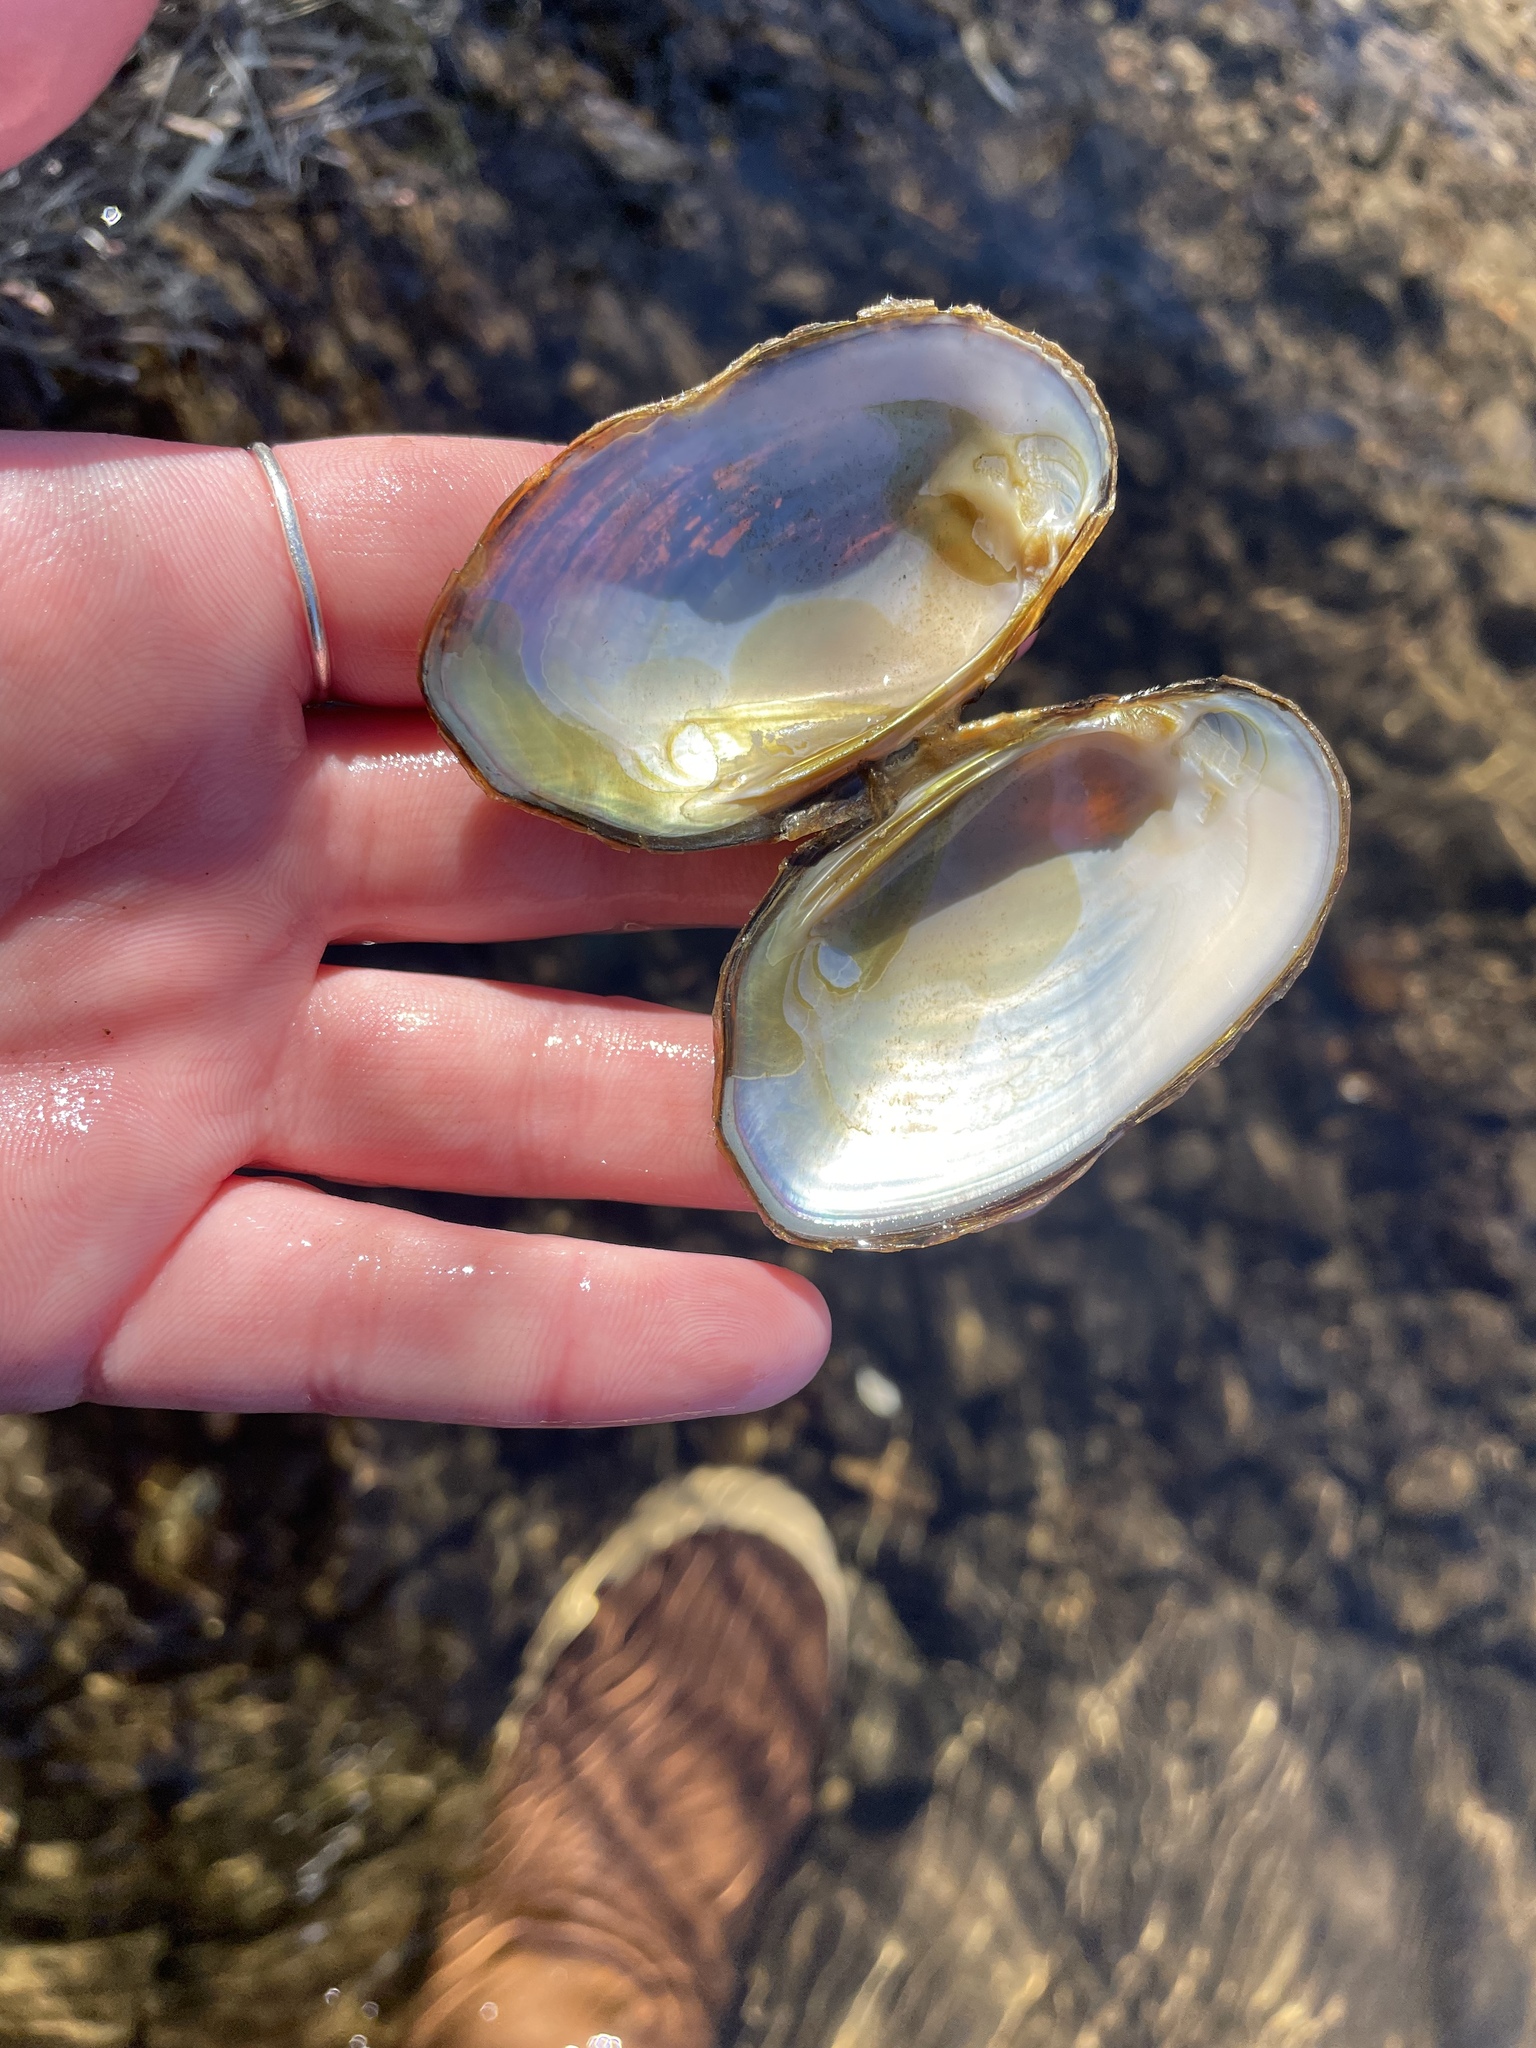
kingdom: Animalia
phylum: Mollusca
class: Bivalvia
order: Unionida
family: Unionidae
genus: Elliptio
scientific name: Elliptio complanata
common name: Eastern elliptio
